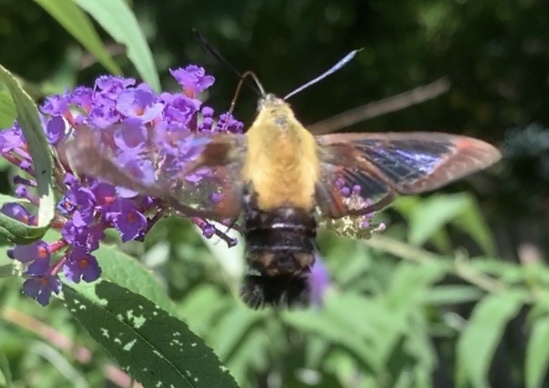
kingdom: Animalia
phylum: Arthropoda
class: Insecta
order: Lepidoptera
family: Sphingidae
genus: Hemaris
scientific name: Hemaris diffinis
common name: Bumblebee moth
